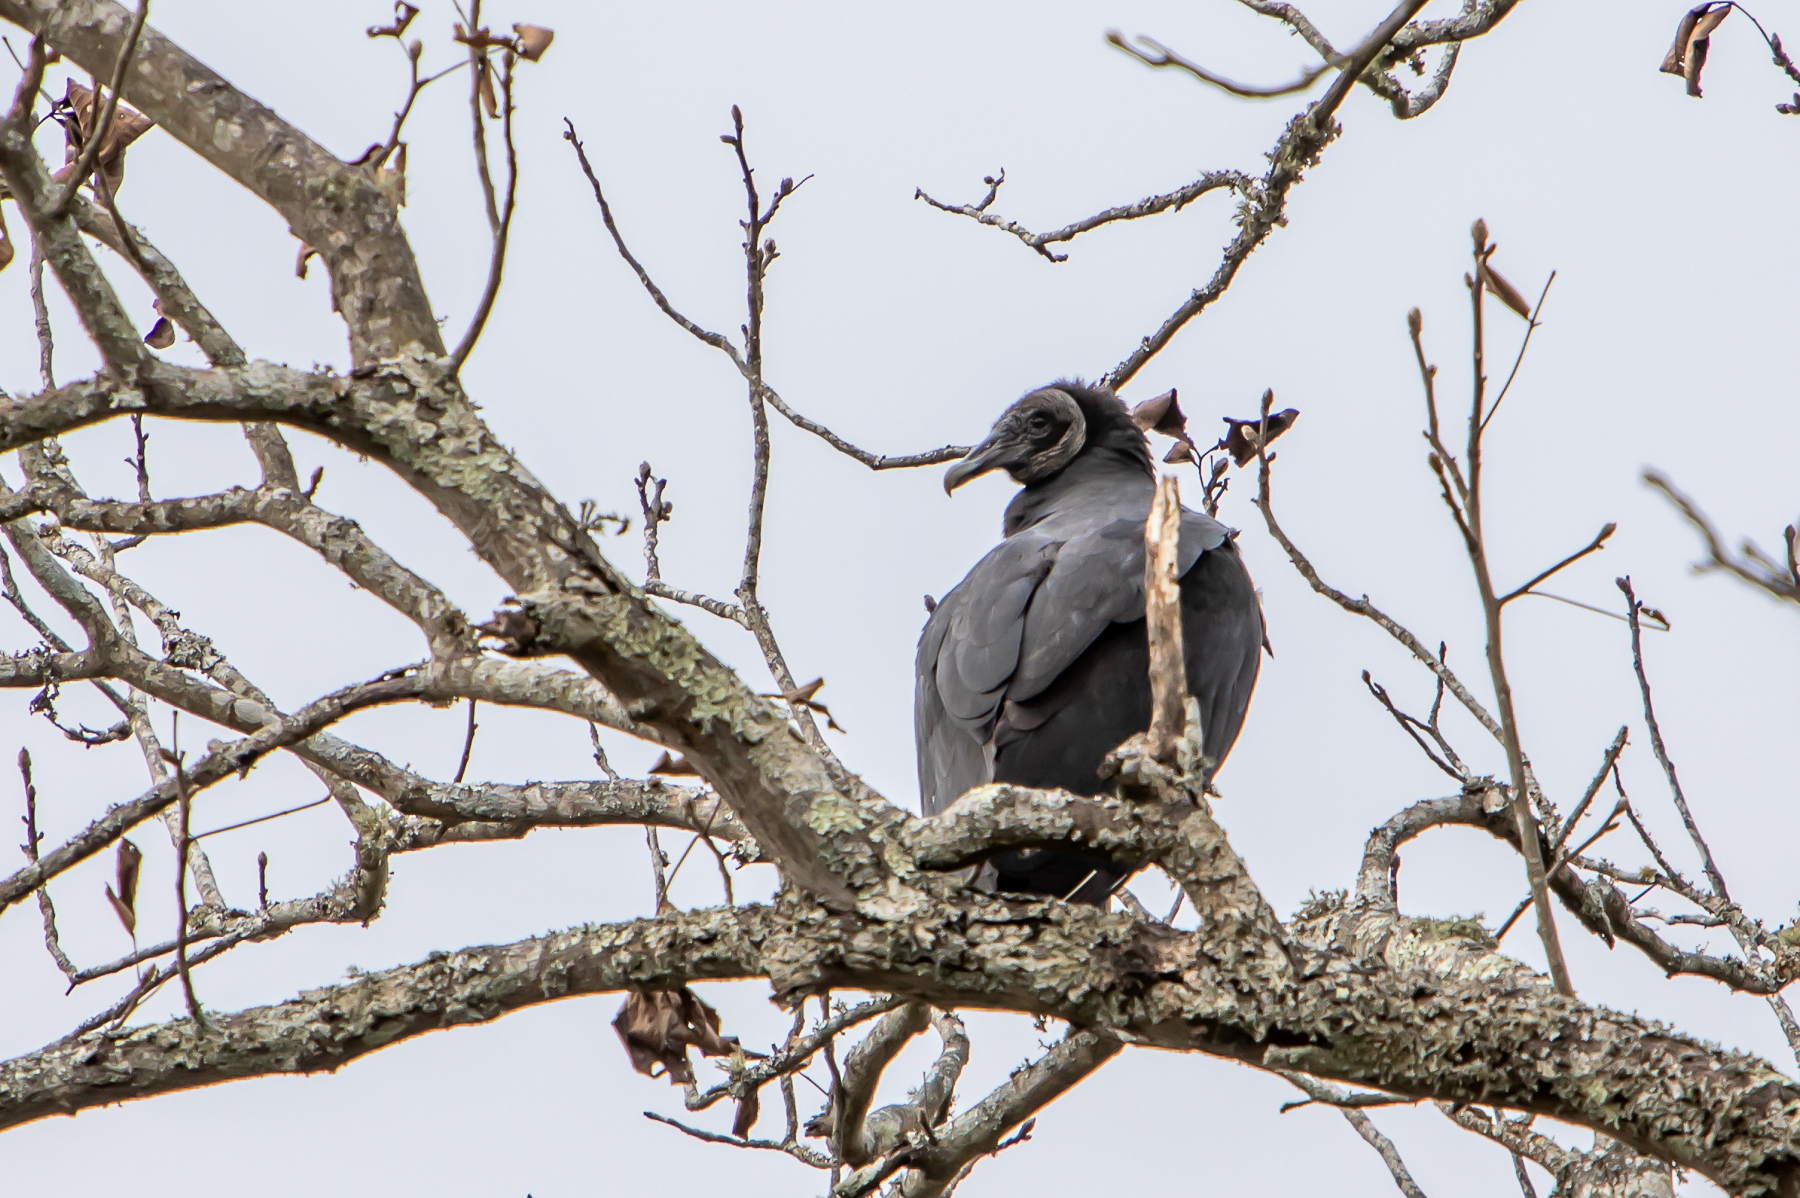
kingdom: Animalia
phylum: Chordata
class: Aves
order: Accipitriformes
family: Cathartidae
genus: Coragyps
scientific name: Coragyps atratus
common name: Black vulture
